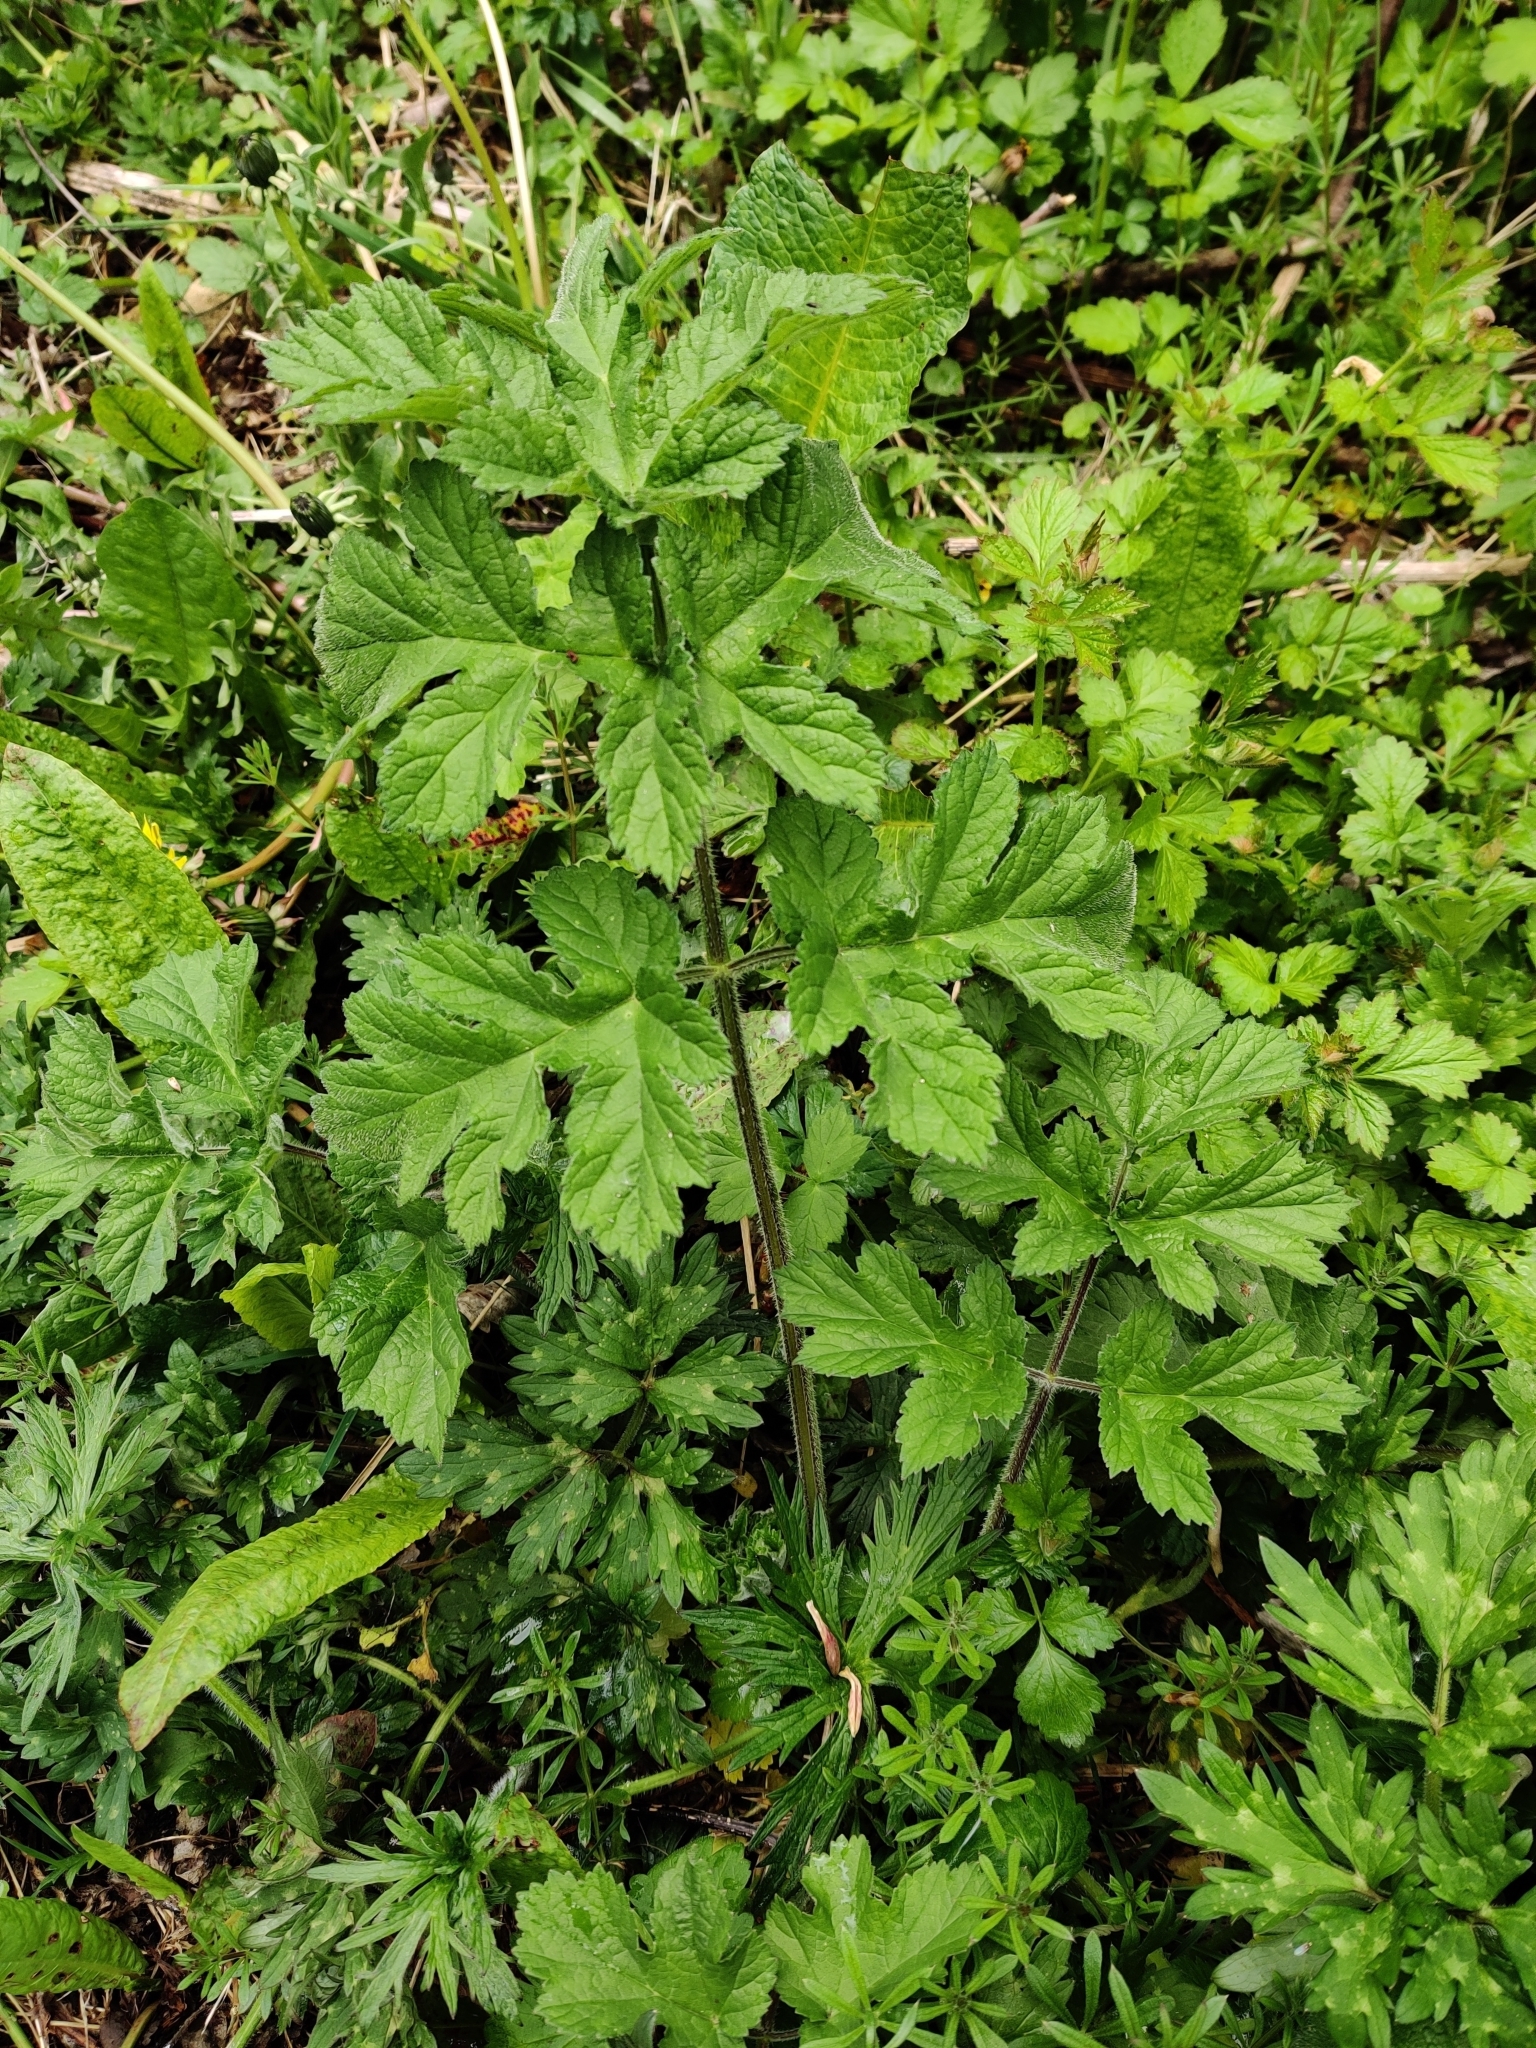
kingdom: Plantae
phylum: Tracheophyta
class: Magnoliopsida
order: Apiales
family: Apiaceae
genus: Heracleum
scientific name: Heracleum sphondylium
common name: Hogweed
